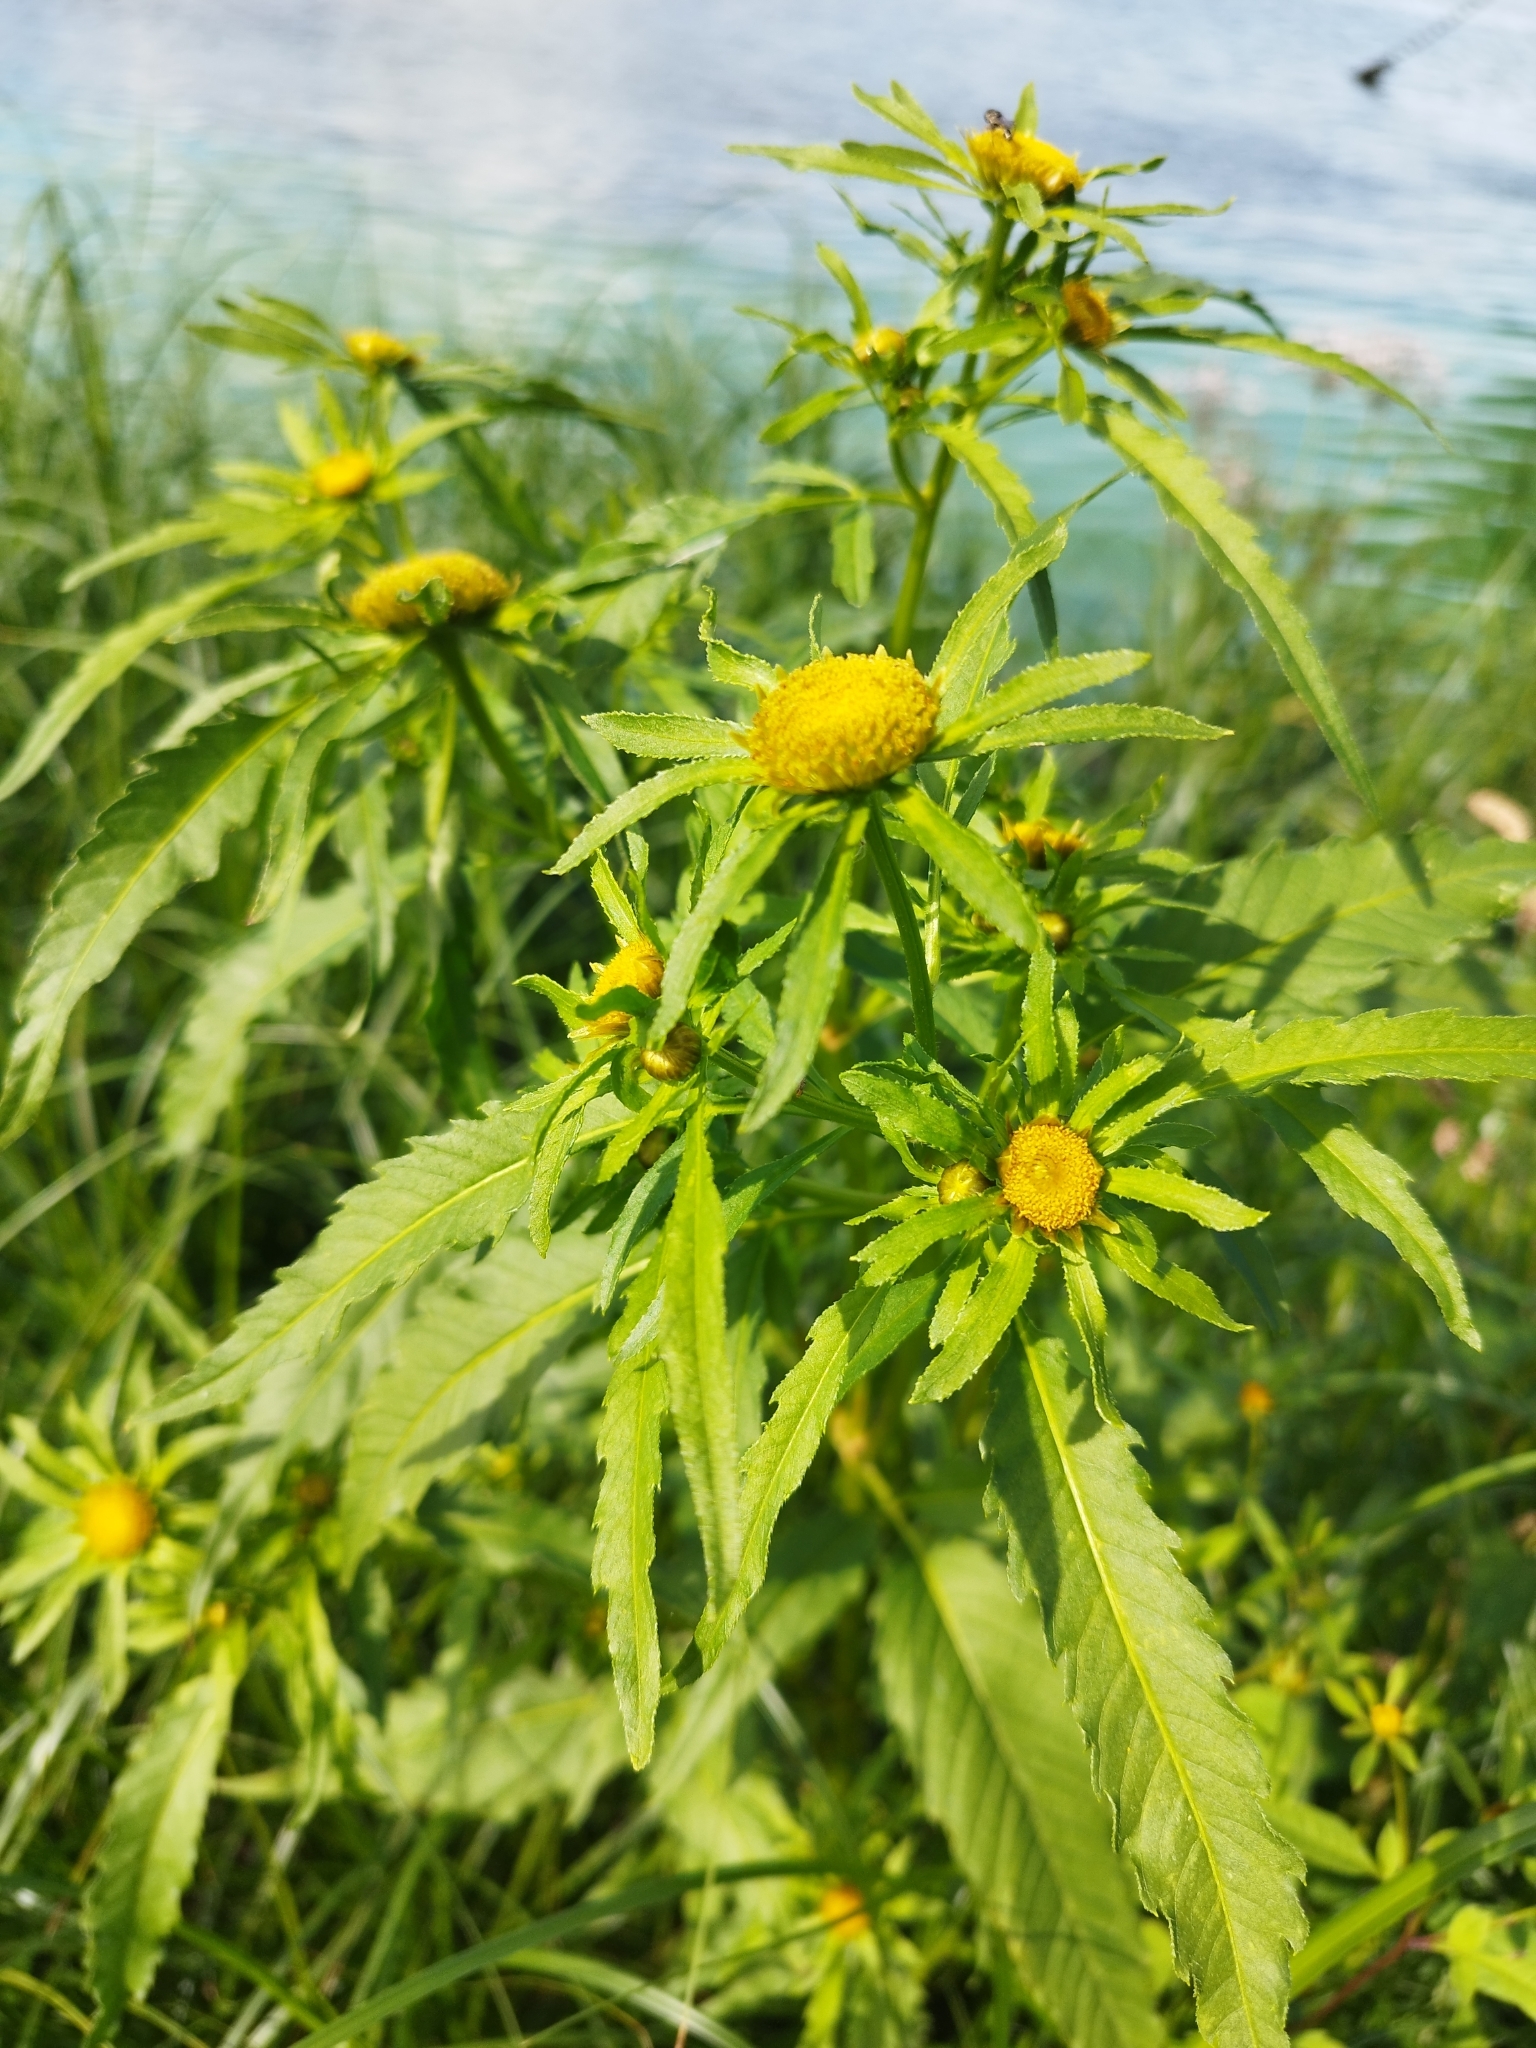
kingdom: Plantae
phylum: Tracheophyta
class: Magnoliopsida
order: Asterales
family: Asteraceae
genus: Bidens
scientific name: Bidens radiata
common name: Radiating bur-marigold
